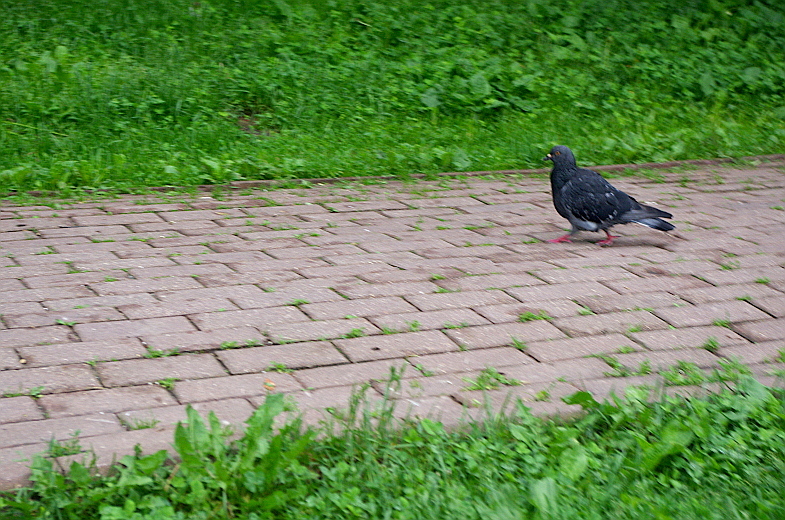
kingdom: Animalia
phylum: Chordata
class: Aves
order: Columbiformes
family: Columbidae
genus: Columba
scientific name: Columba livia
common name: Rock pigeon
